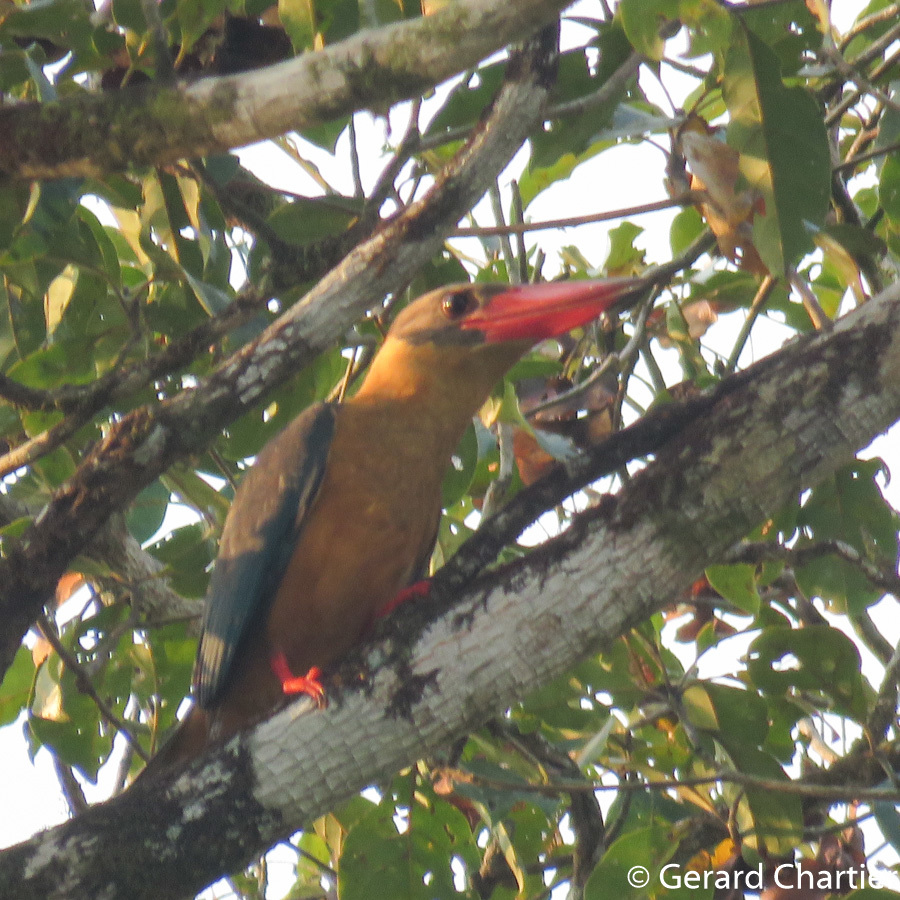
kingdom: Animalia
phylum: Chordata
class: Aves
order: Coraciiformes
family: Alcedinidae
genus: Pelargopsis
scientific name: Pelargopsis capensis
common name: Stork-billed kingfisher
